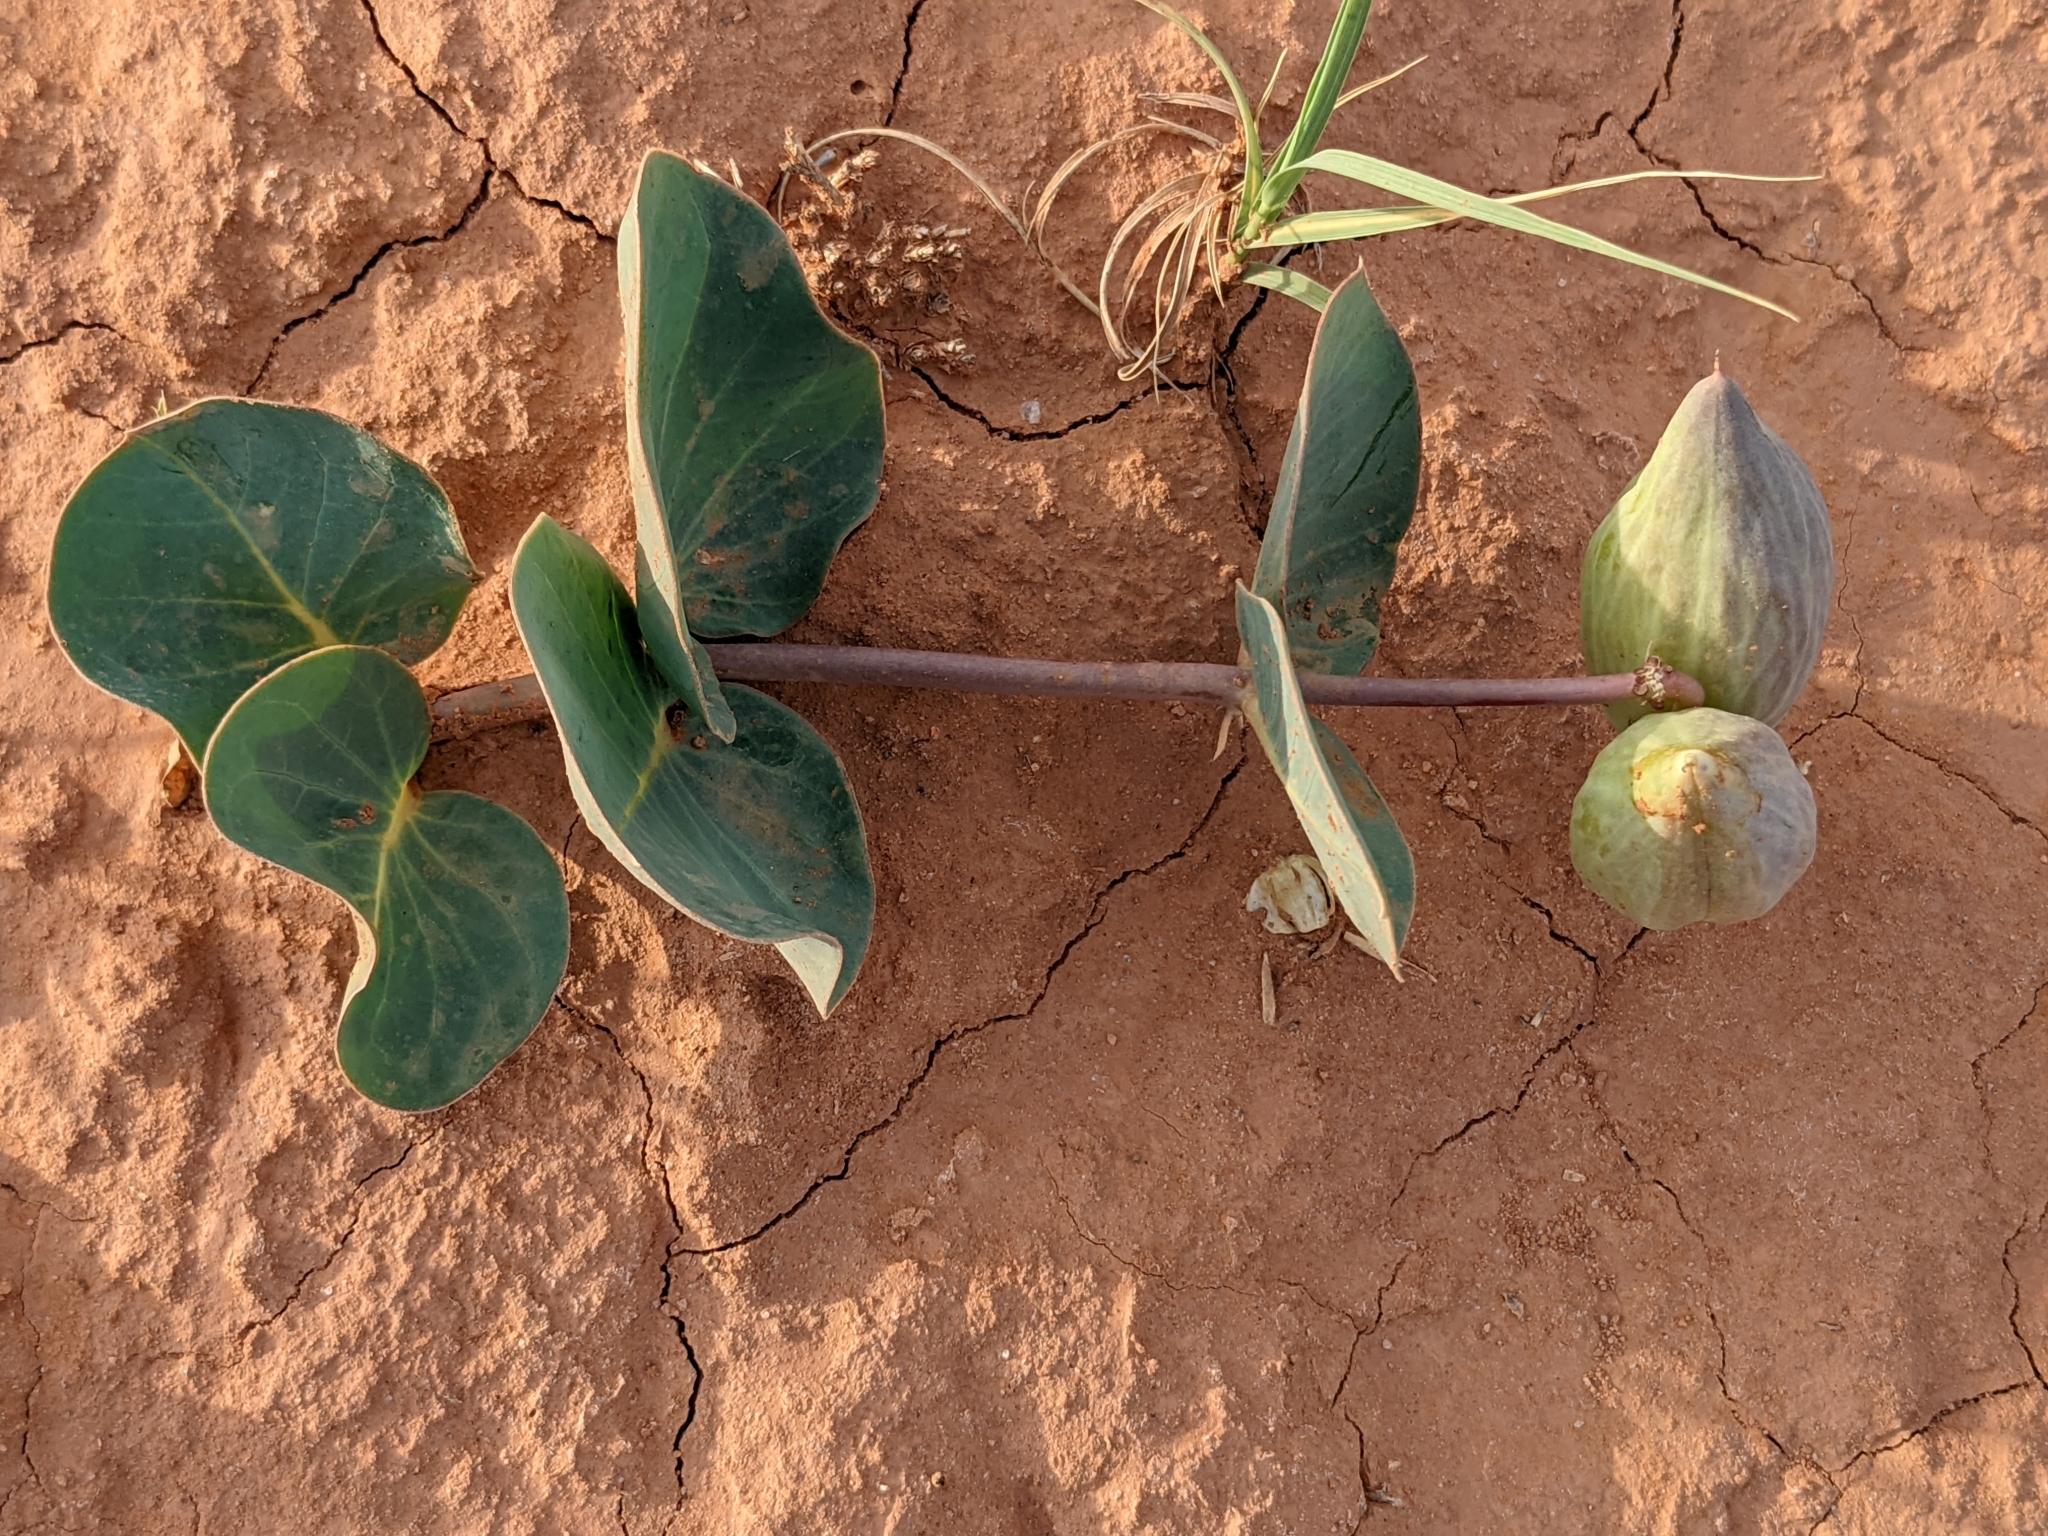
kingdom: Plantae
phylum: Tracheophyta
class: Magnoliopsida
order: Gentianales
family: Apocynaceae
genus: Asclepias
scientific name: Asclepias cryptoceras
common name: Humboldt mountains milkweed
